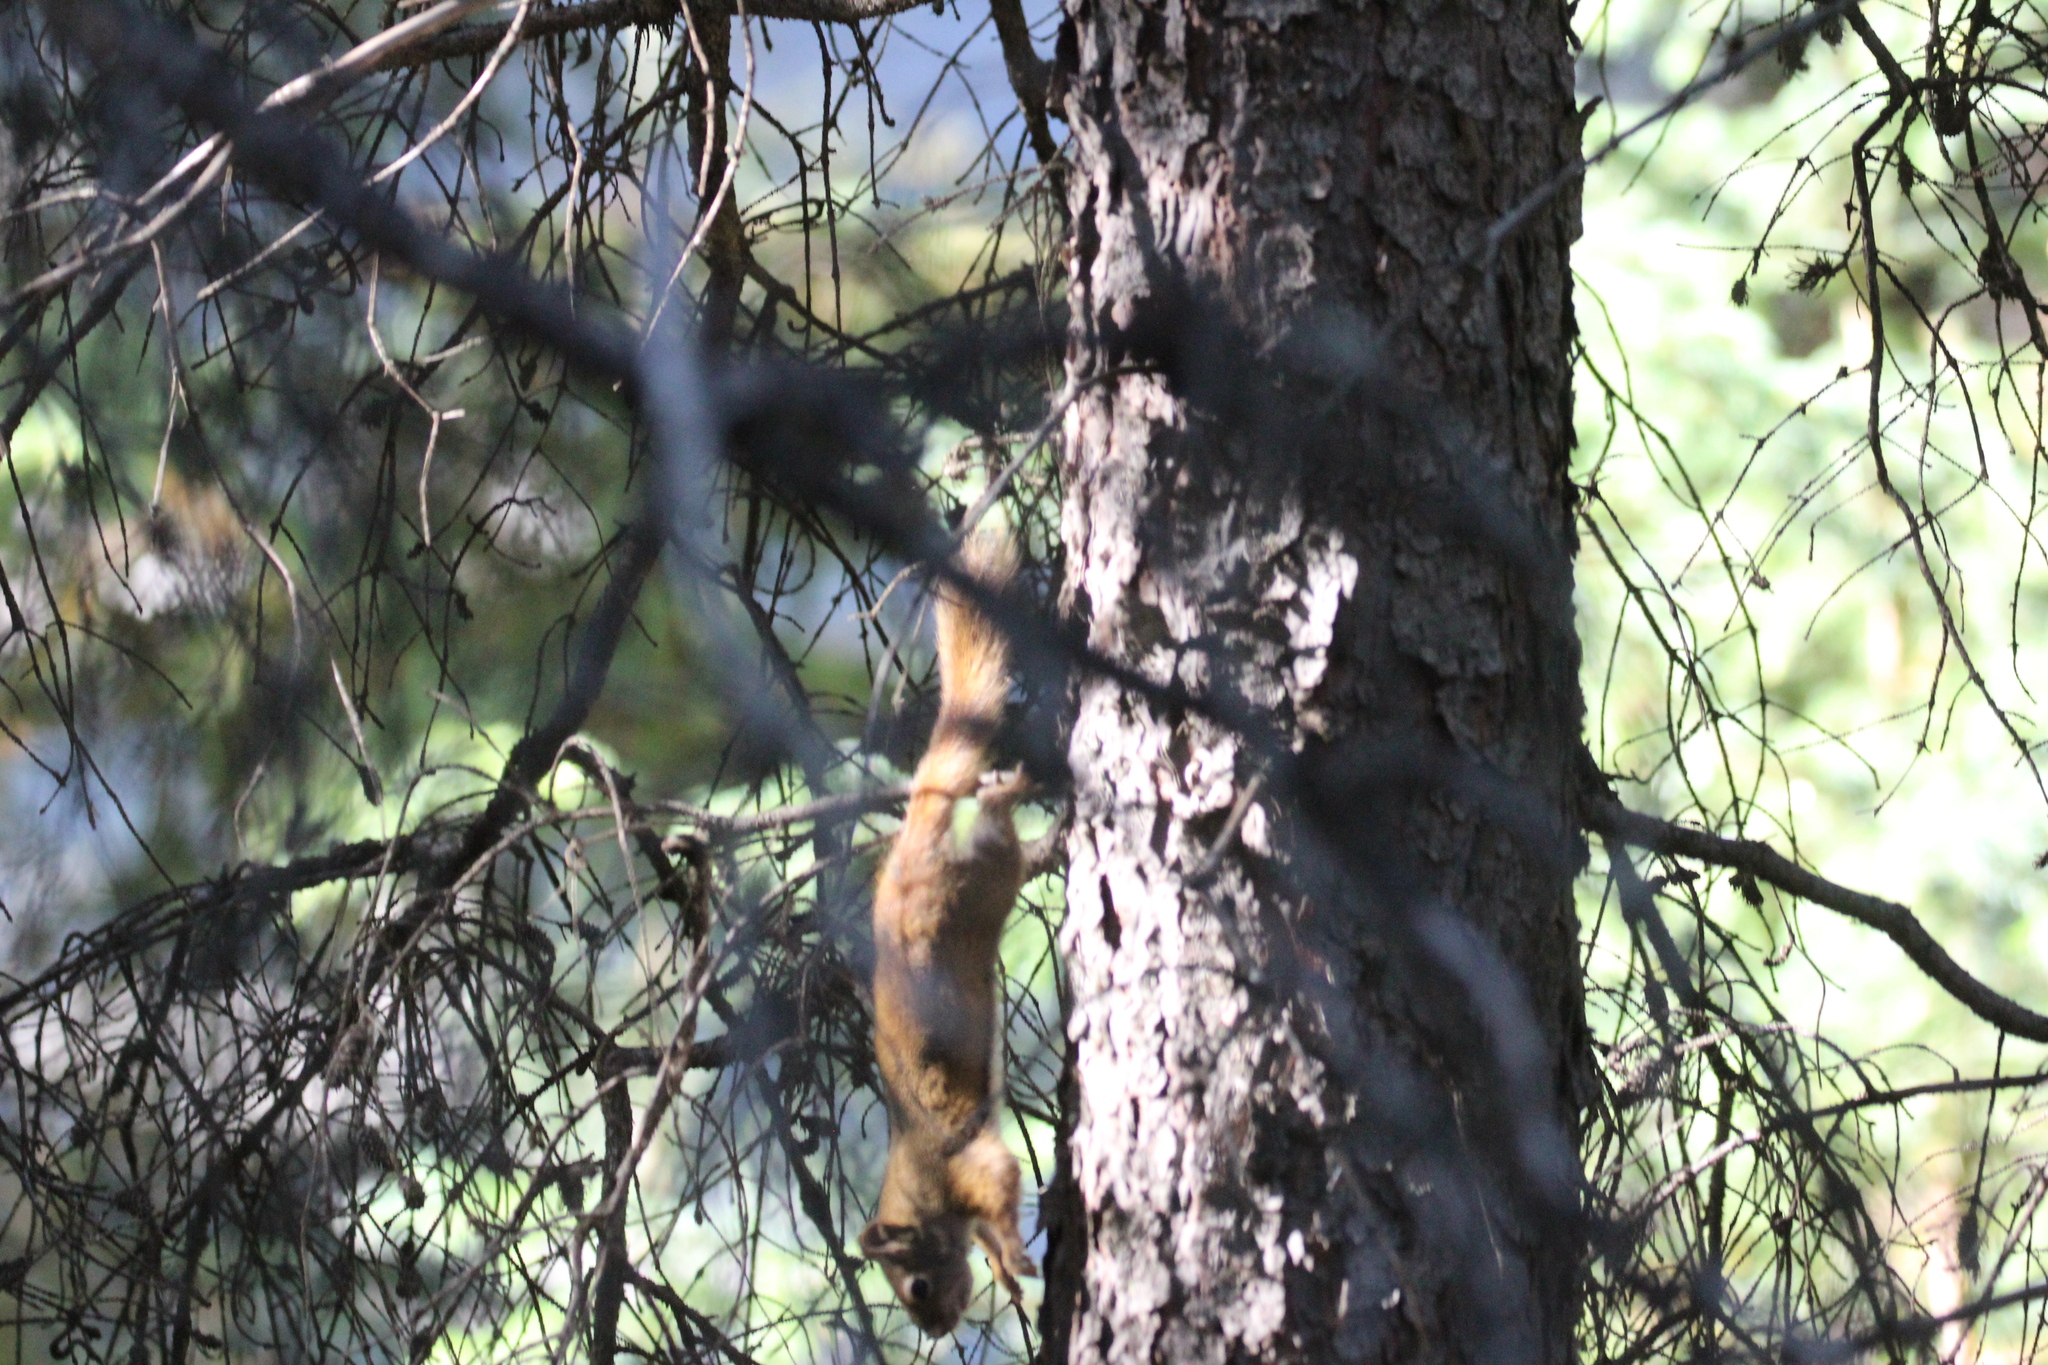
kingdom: Animalia
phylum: Chordata
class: Mammalia
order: Rodentia
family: Sciuridae
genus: Tamiasciurus
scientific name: Tamiasciurus hudsonicus
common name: Red squirrel
